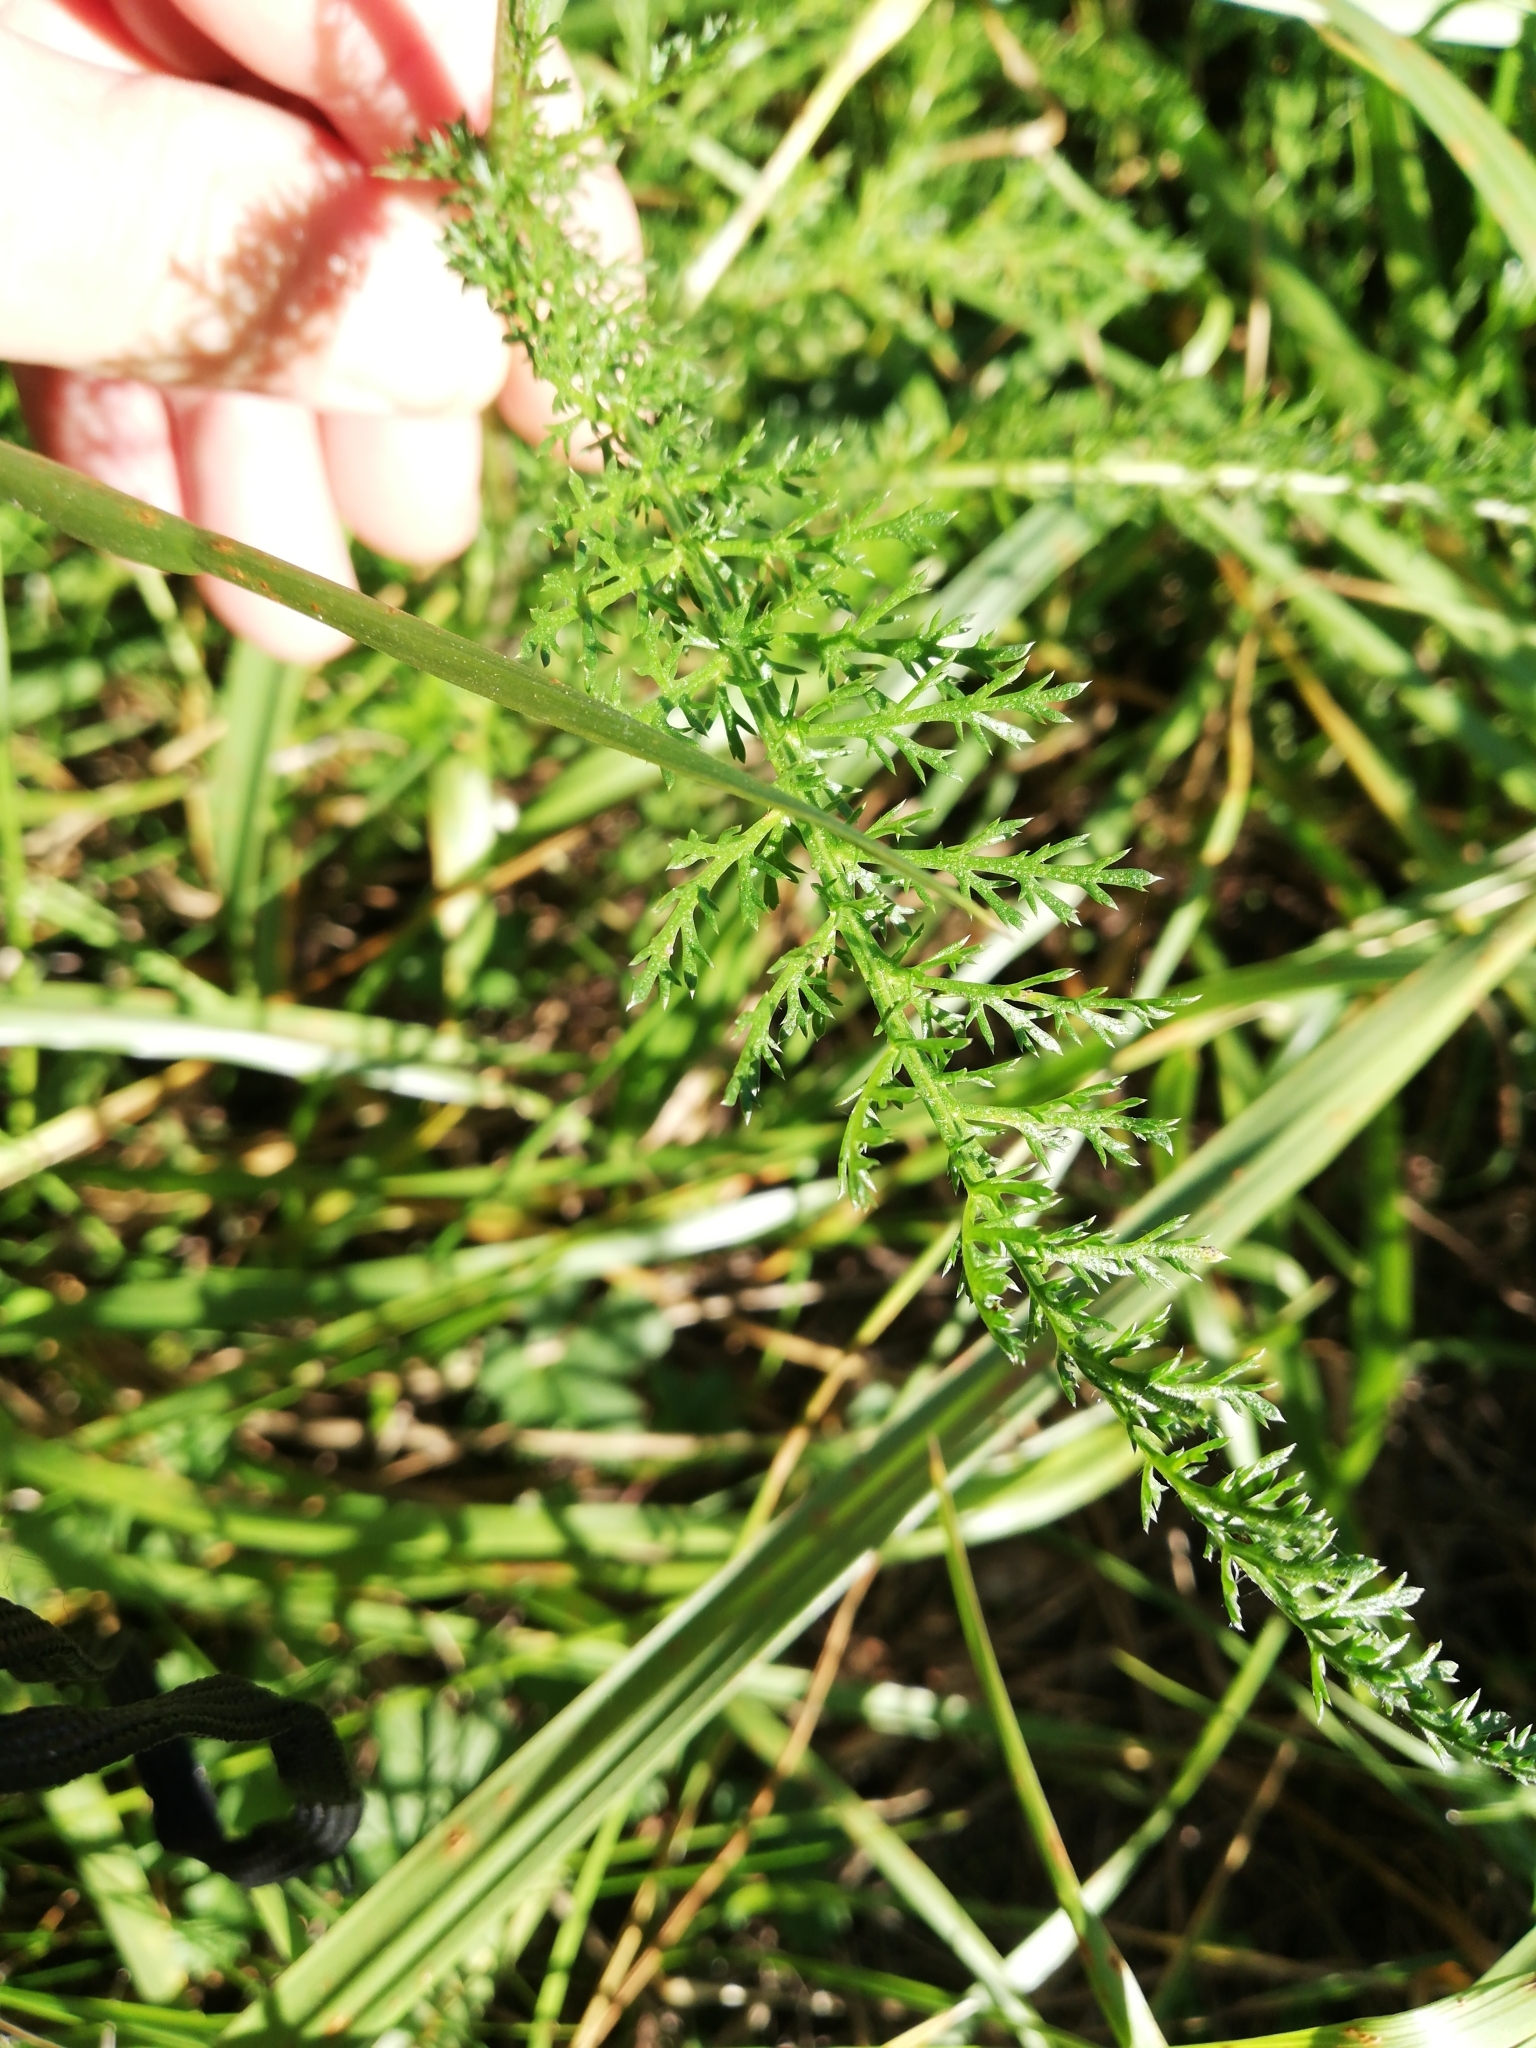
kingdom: Plantae
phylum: Tracheophyta
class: Magnoliopsida
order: Asterales
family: Asteraceae
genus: Achillea
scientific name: Achillea millefolium
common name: Yarrow
